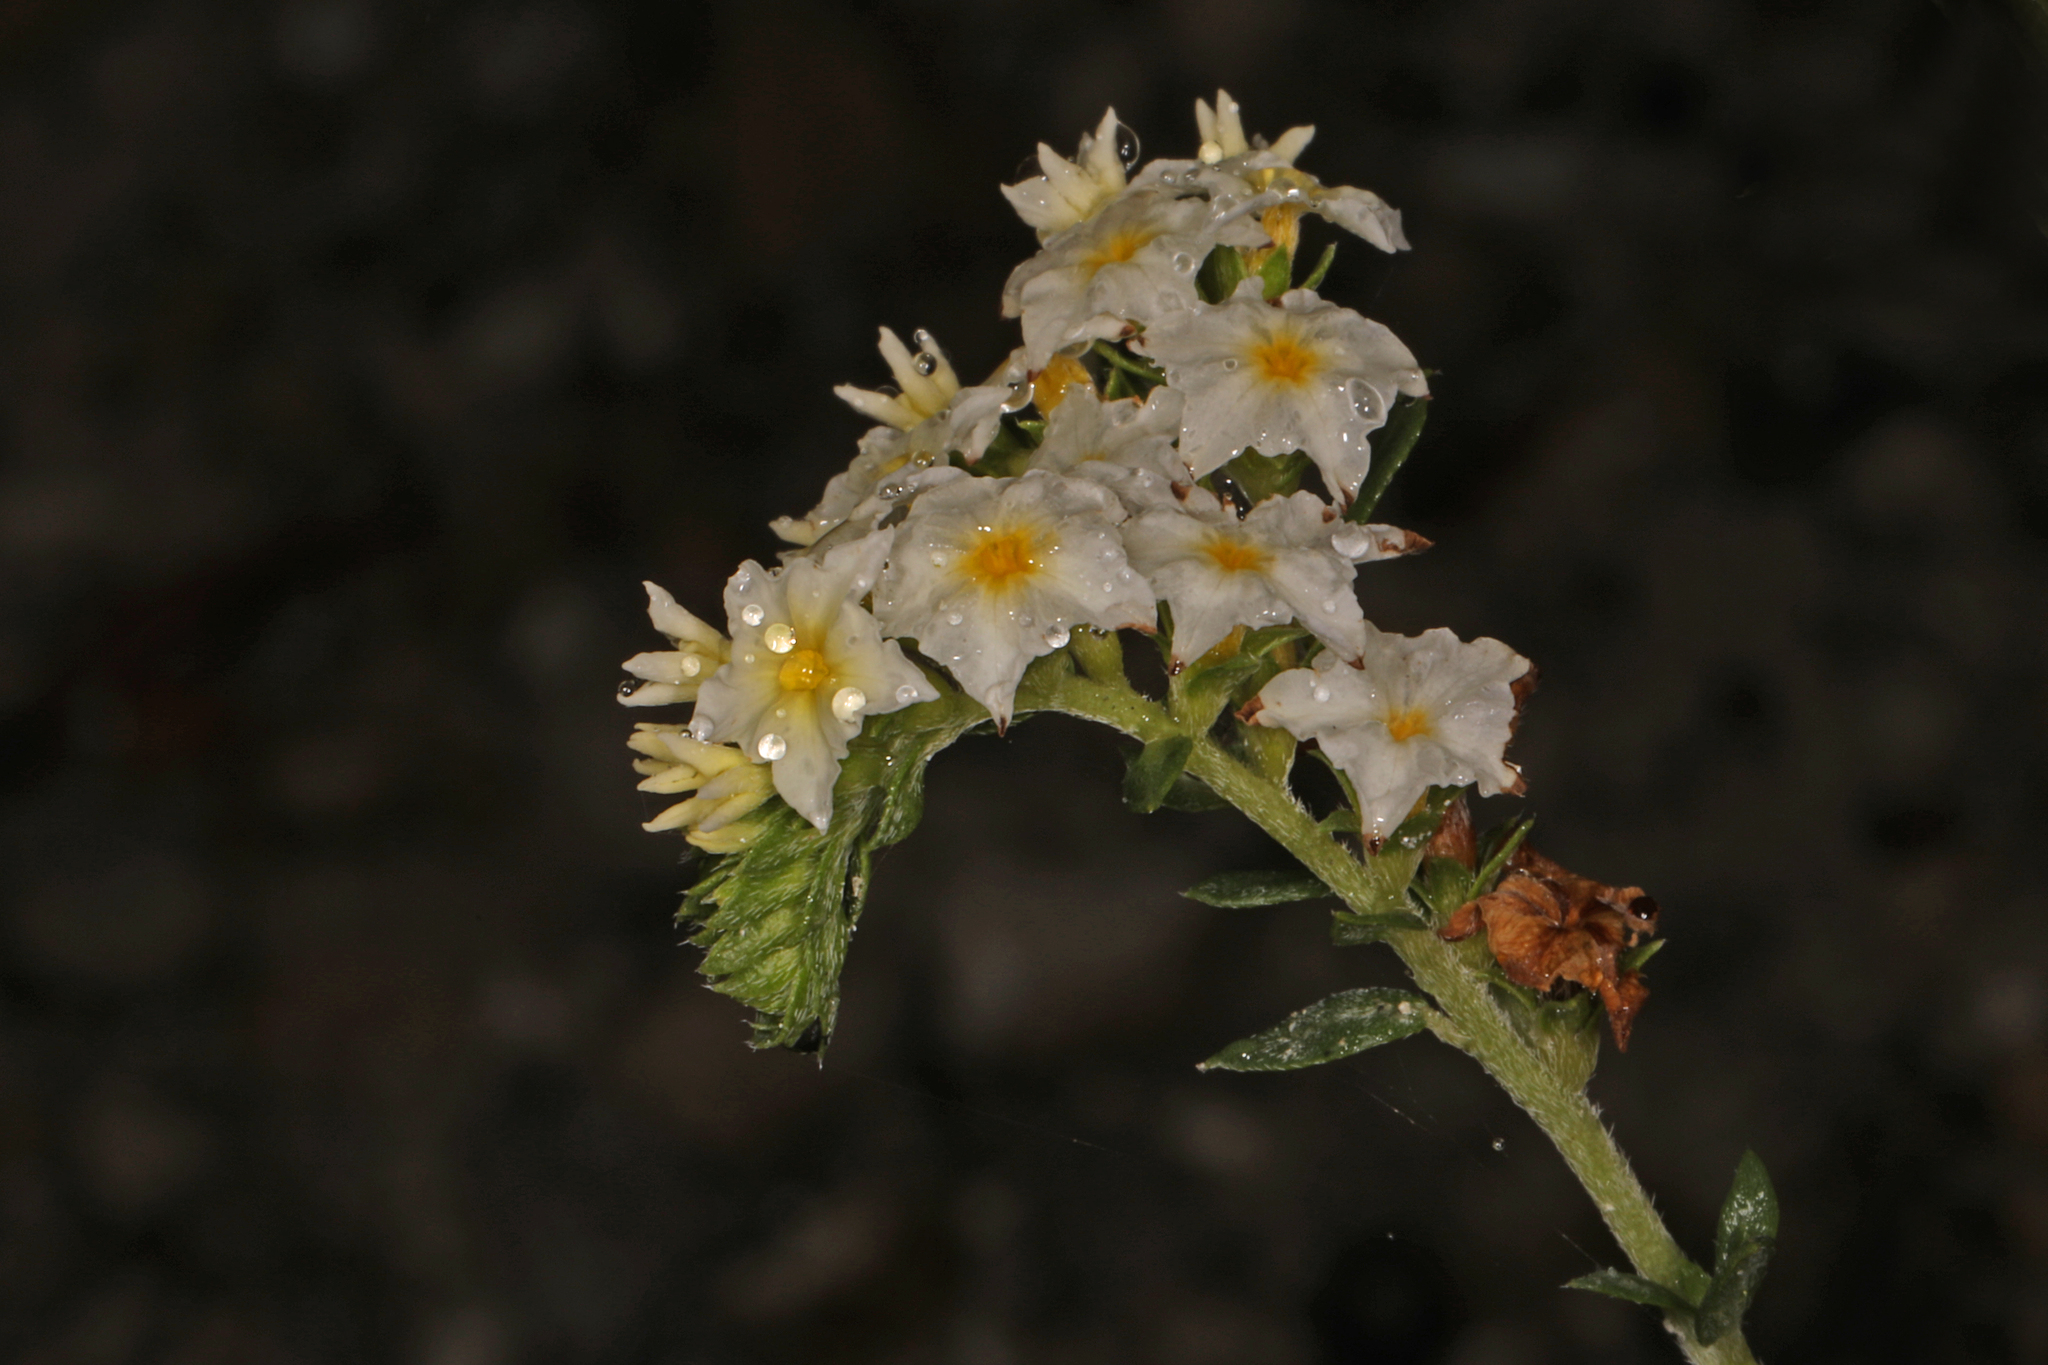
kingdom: Plantae
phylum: Tracheophyta
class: Magnoliopsida
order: Boraginales
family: Heliotropiaceae
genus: Euploca
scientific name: Euploca polyphylla
